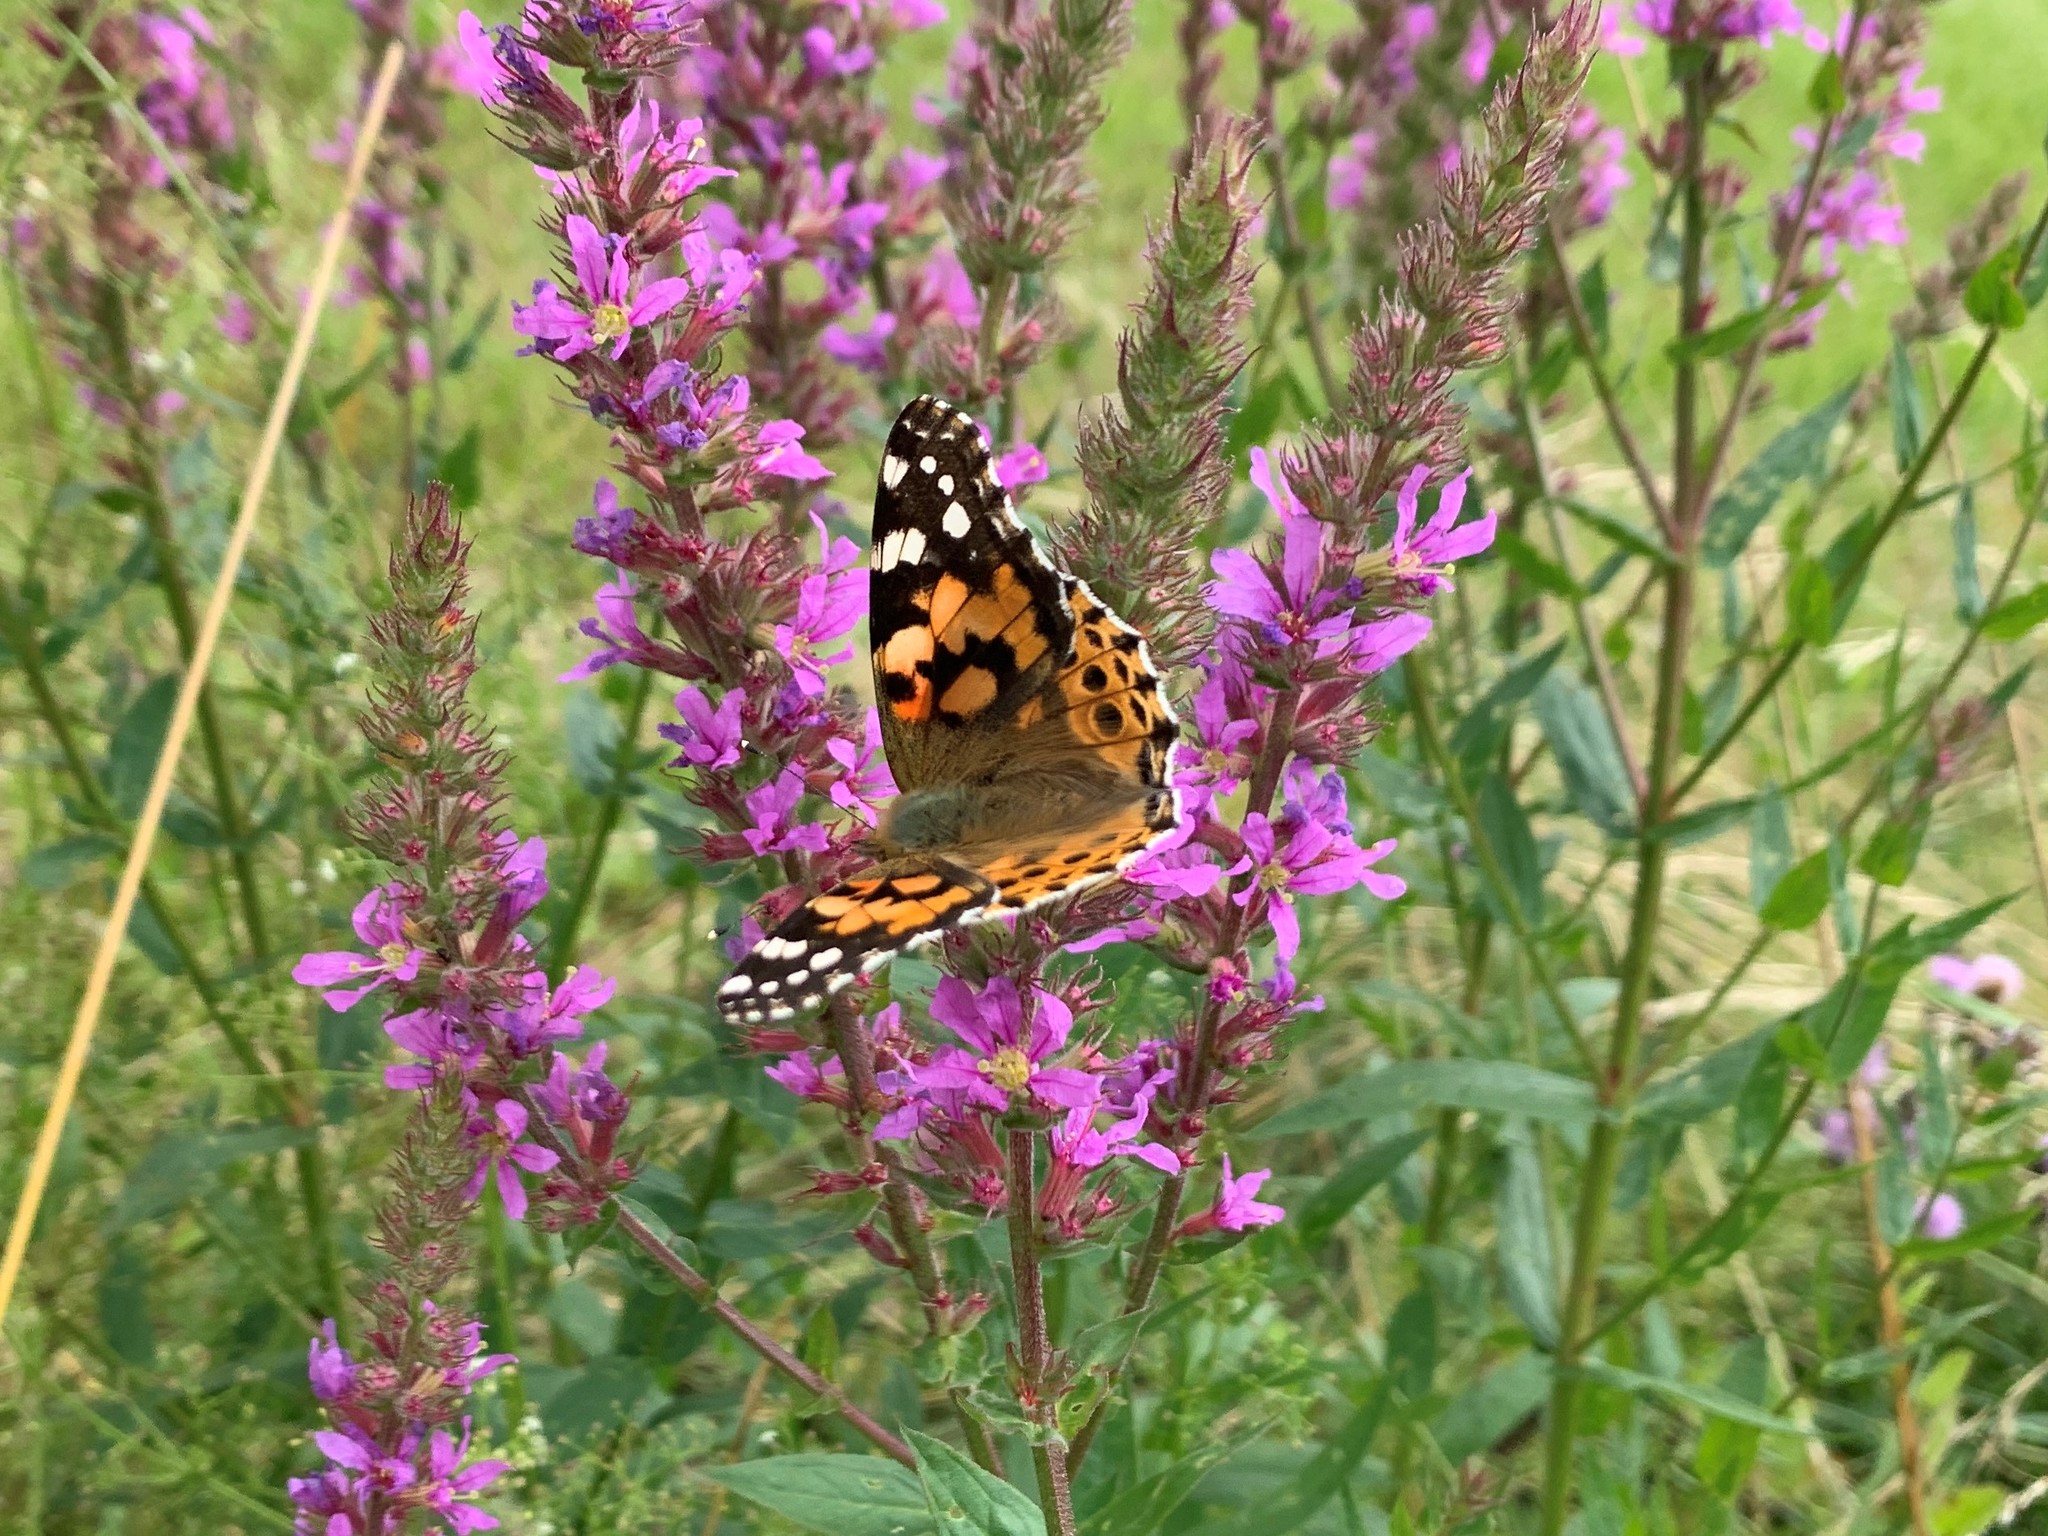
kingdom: Animalia
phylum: Arthropoda
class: Insecta
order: Lepidoptera
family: Nymphalidae
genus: Vanessa
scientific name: Vanessa cardui
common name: Painted lady
